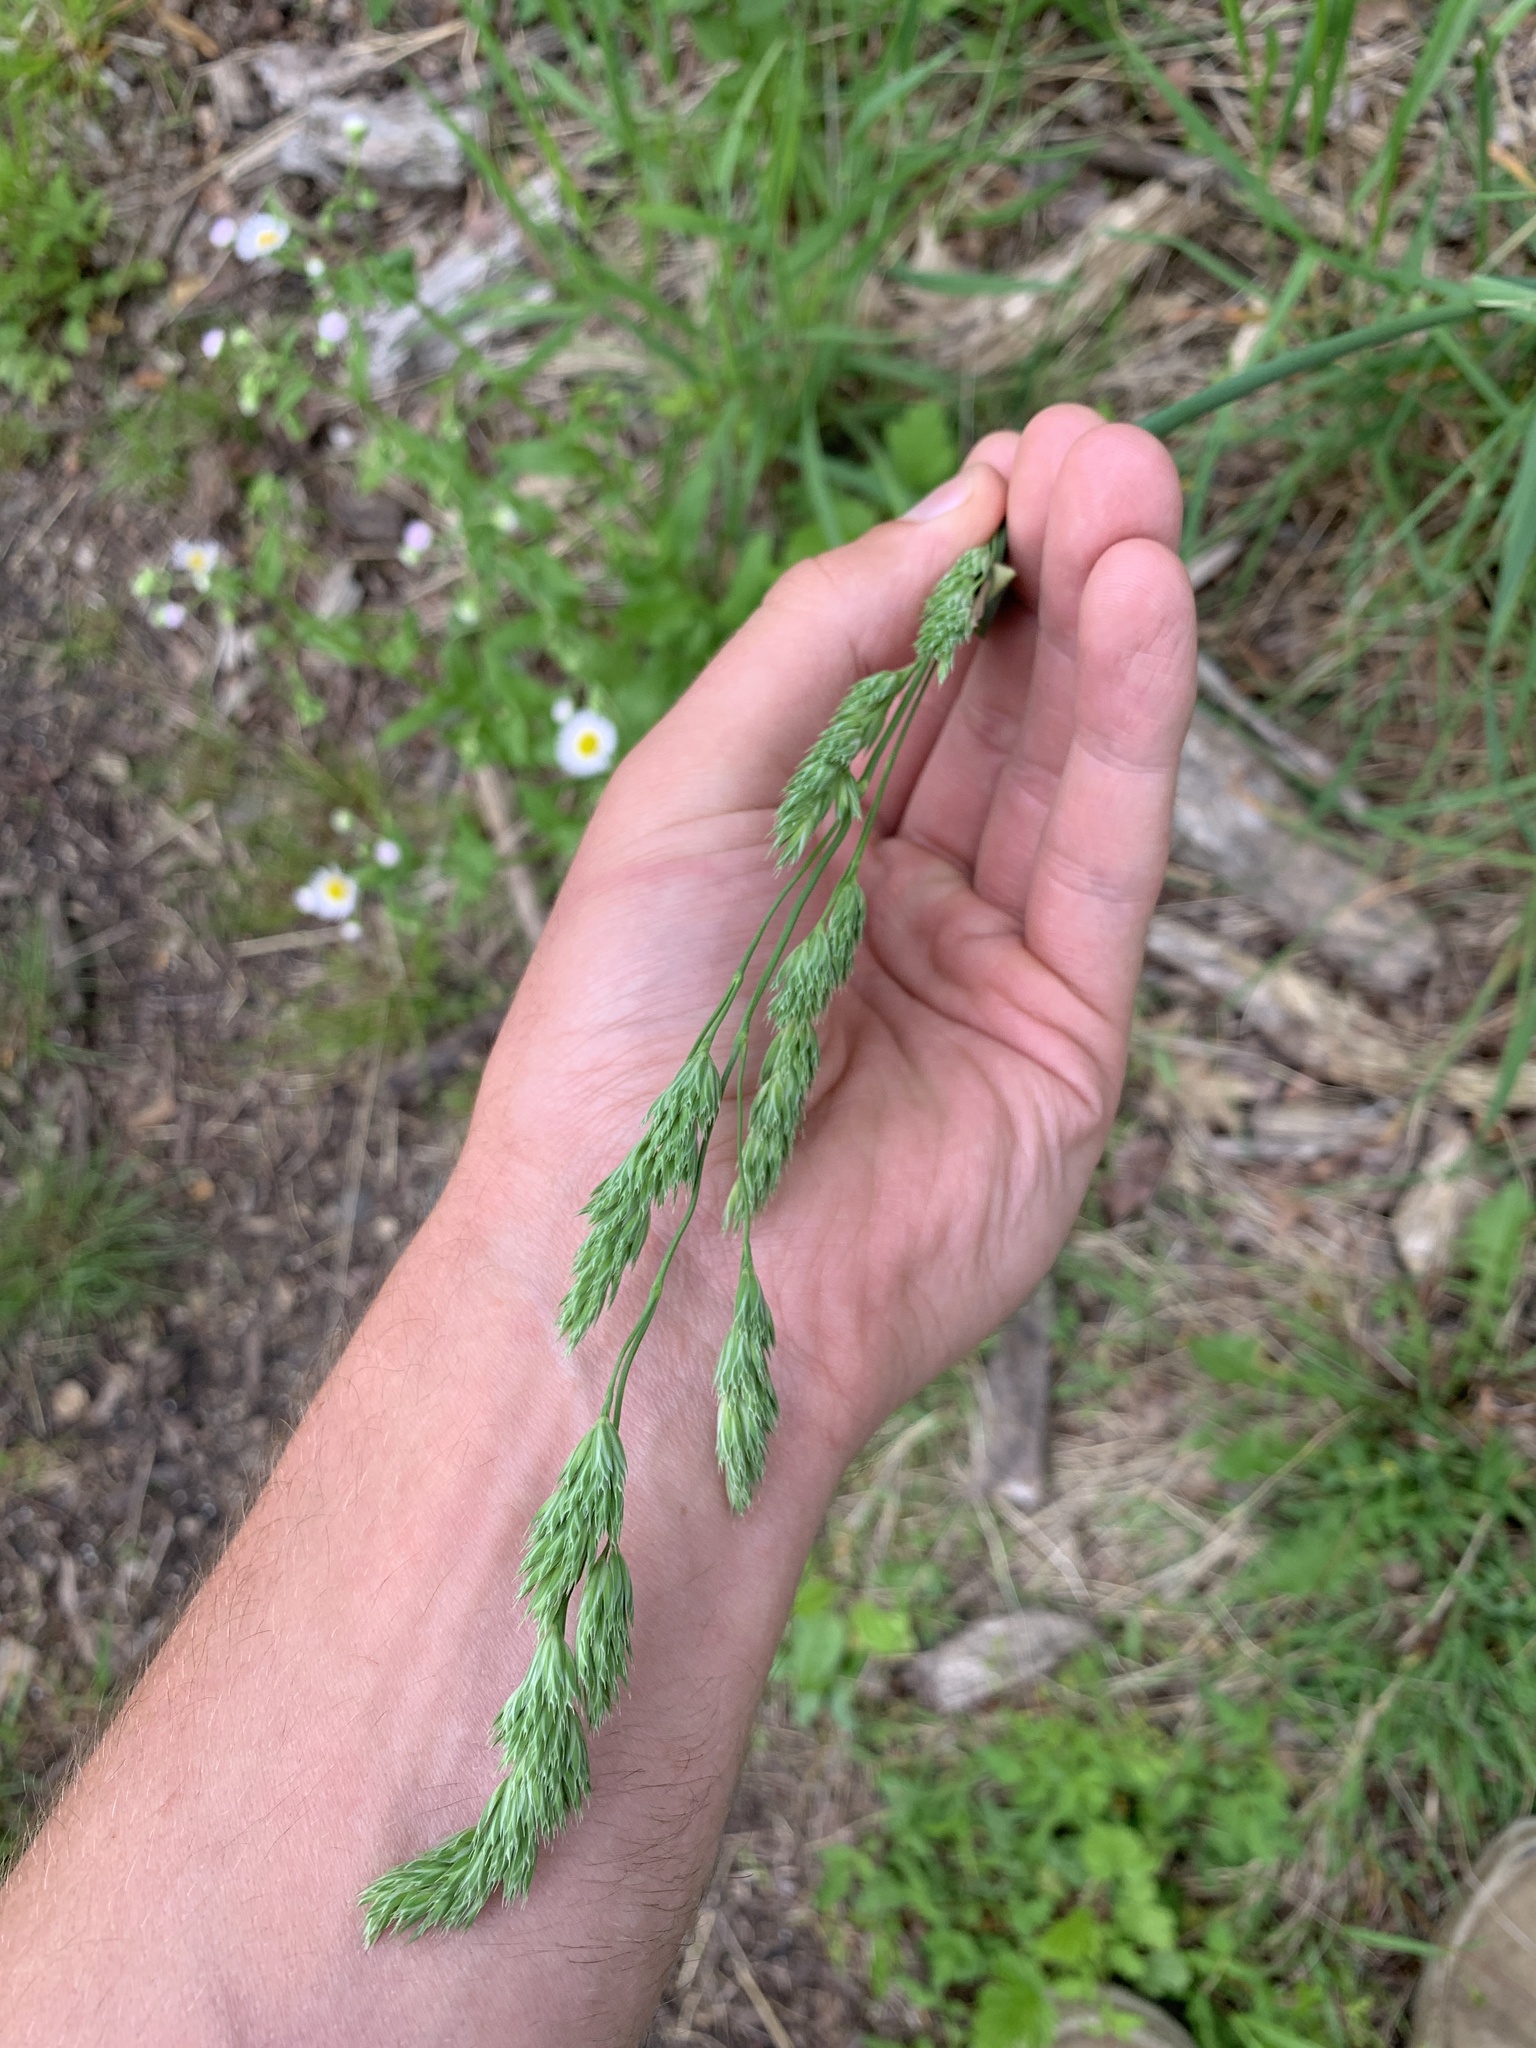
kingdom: Plantae
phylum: Tracheophyta
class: Liliopsida
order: Poales
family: Poaceae
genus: Dactylis
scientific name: Dactylis glomerata
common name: Orchardgrass
